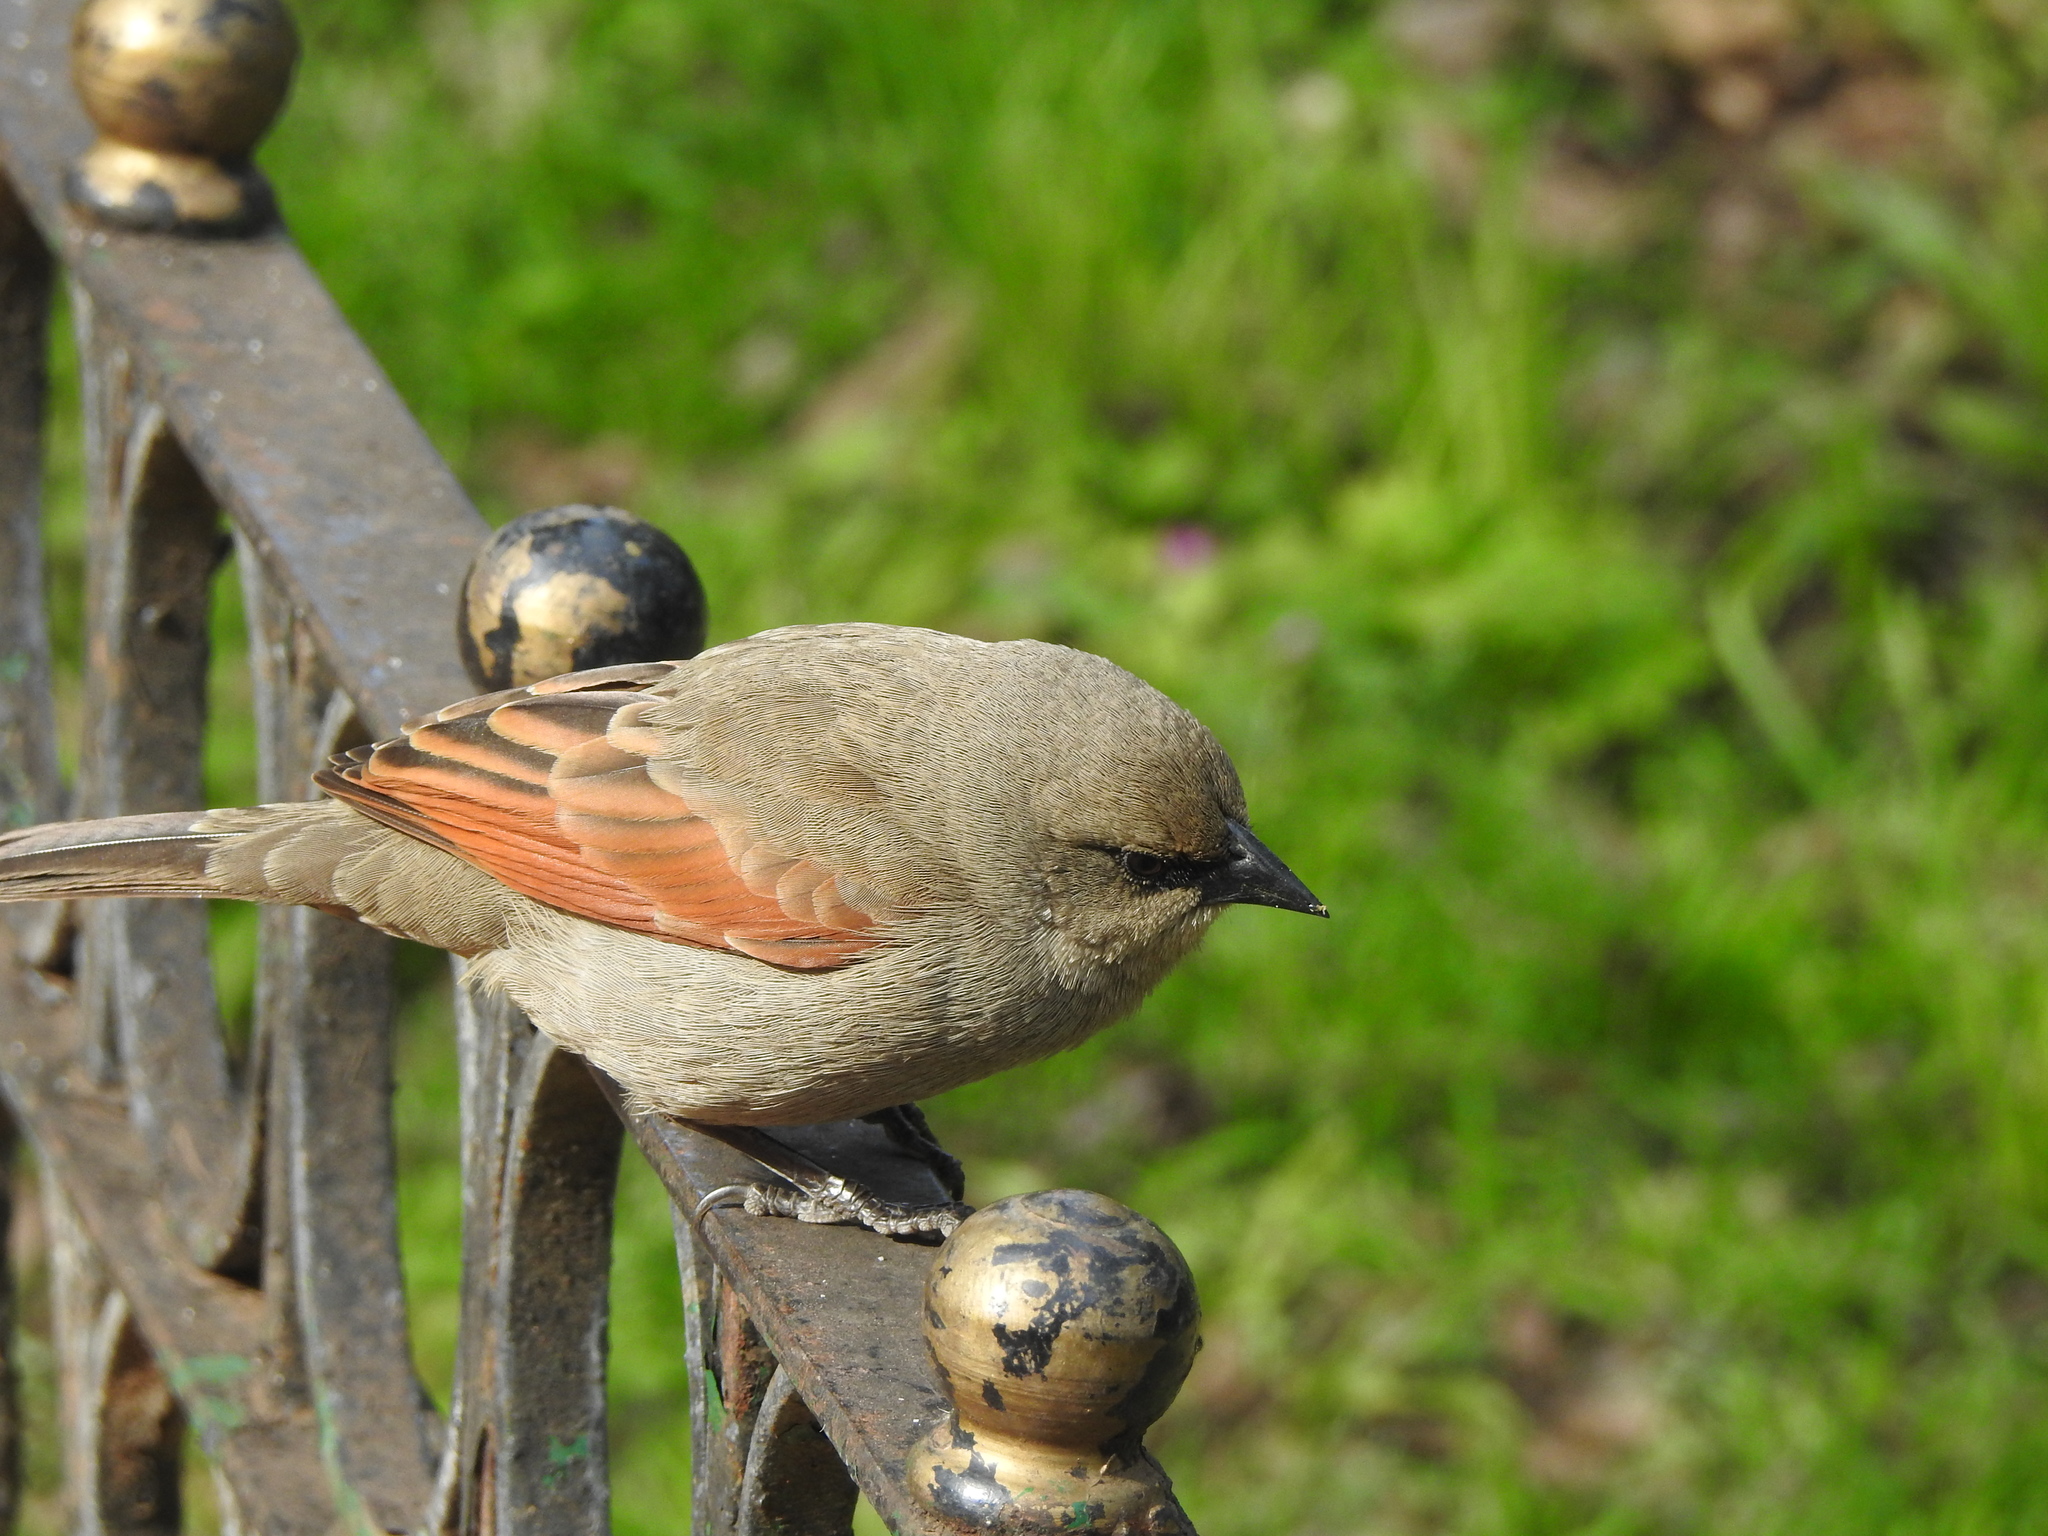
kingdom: Animalia
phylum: Chordata
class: Aves
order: Passeriformes
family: Icteridae
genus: Agelaioides
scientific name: Agelaioides badius
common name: Baywing
